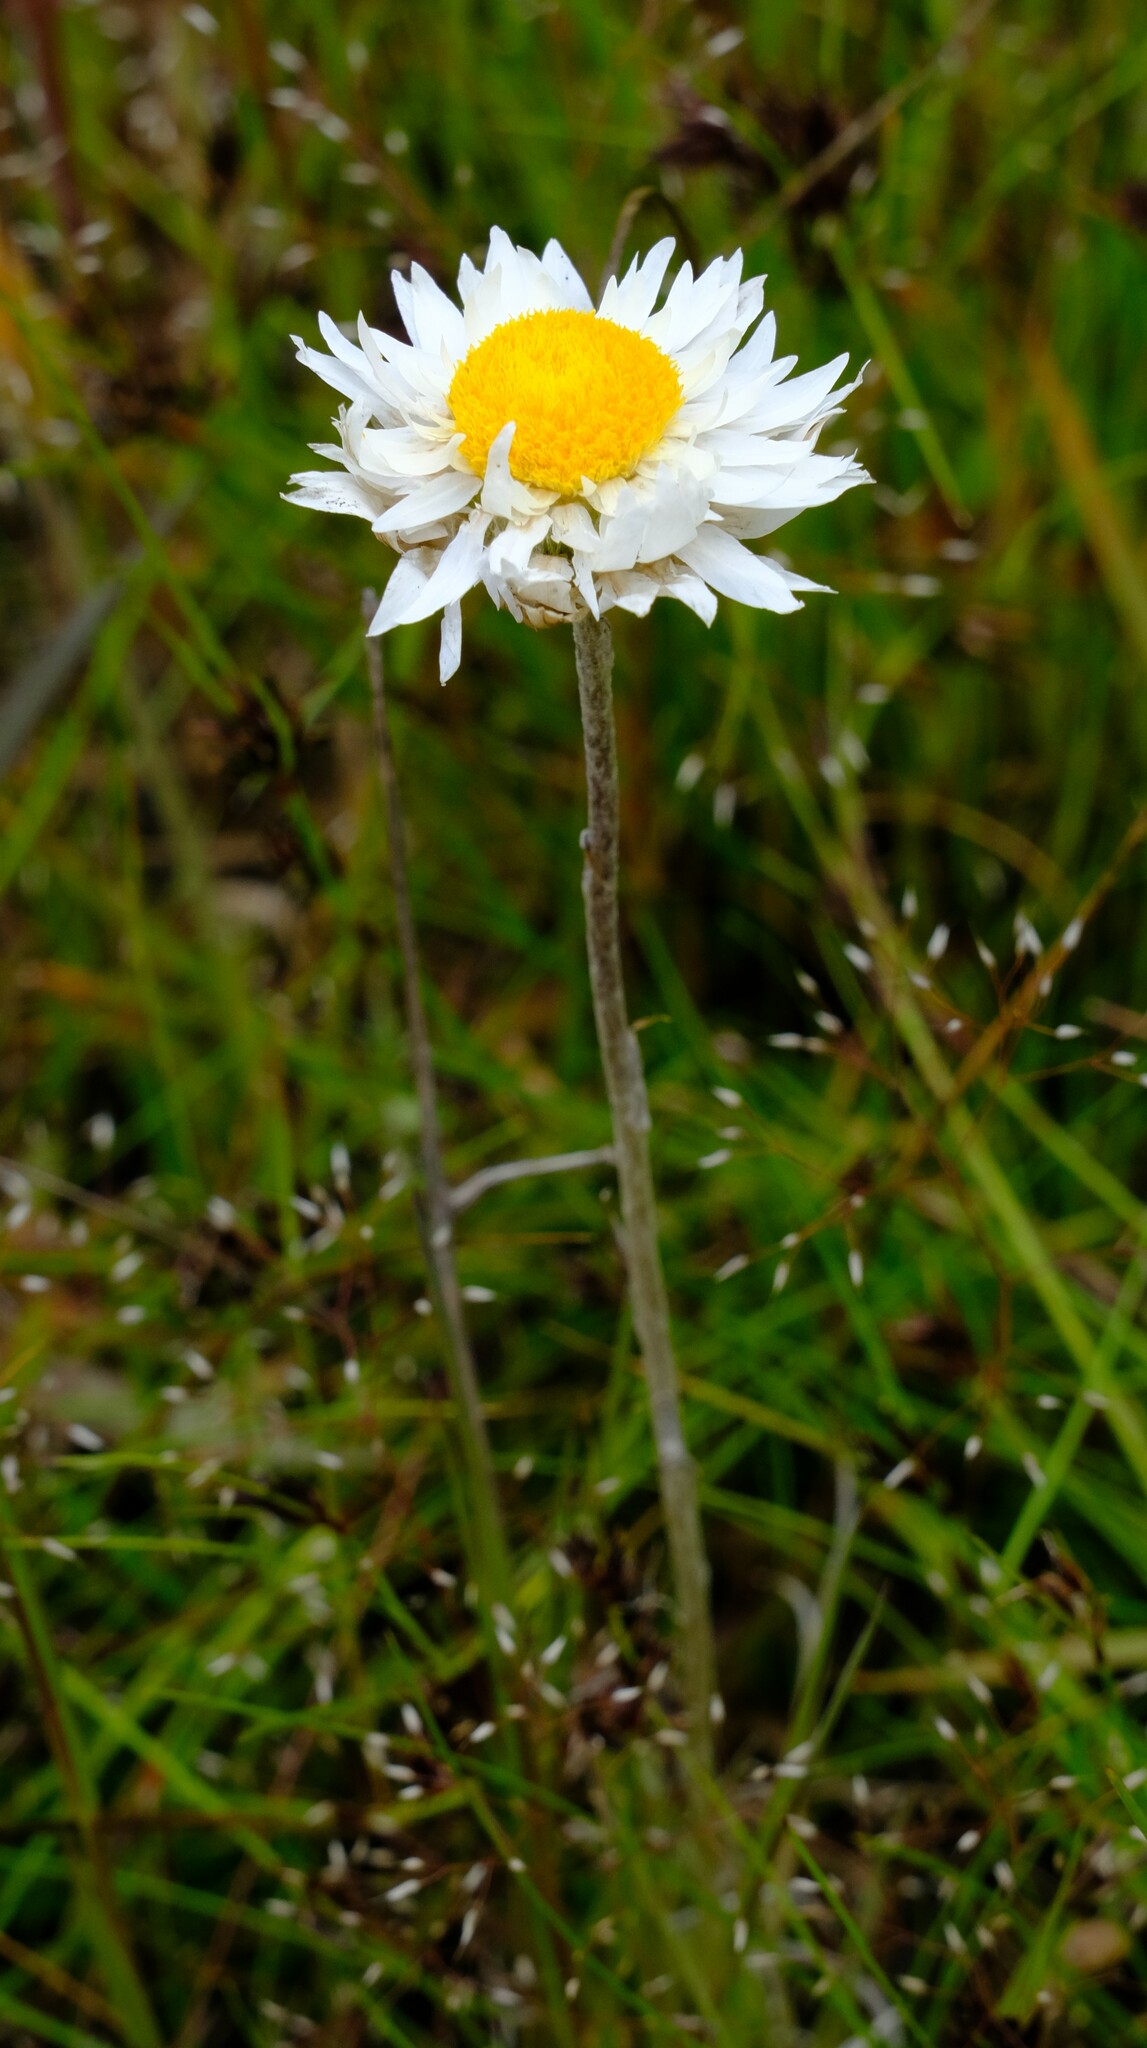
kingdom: Plantae
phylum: Tracheophyta
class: Magnoliopsida
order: Asterales
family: Asteraceae
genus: Leucochrysum
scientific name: Leucochrysum albicans
